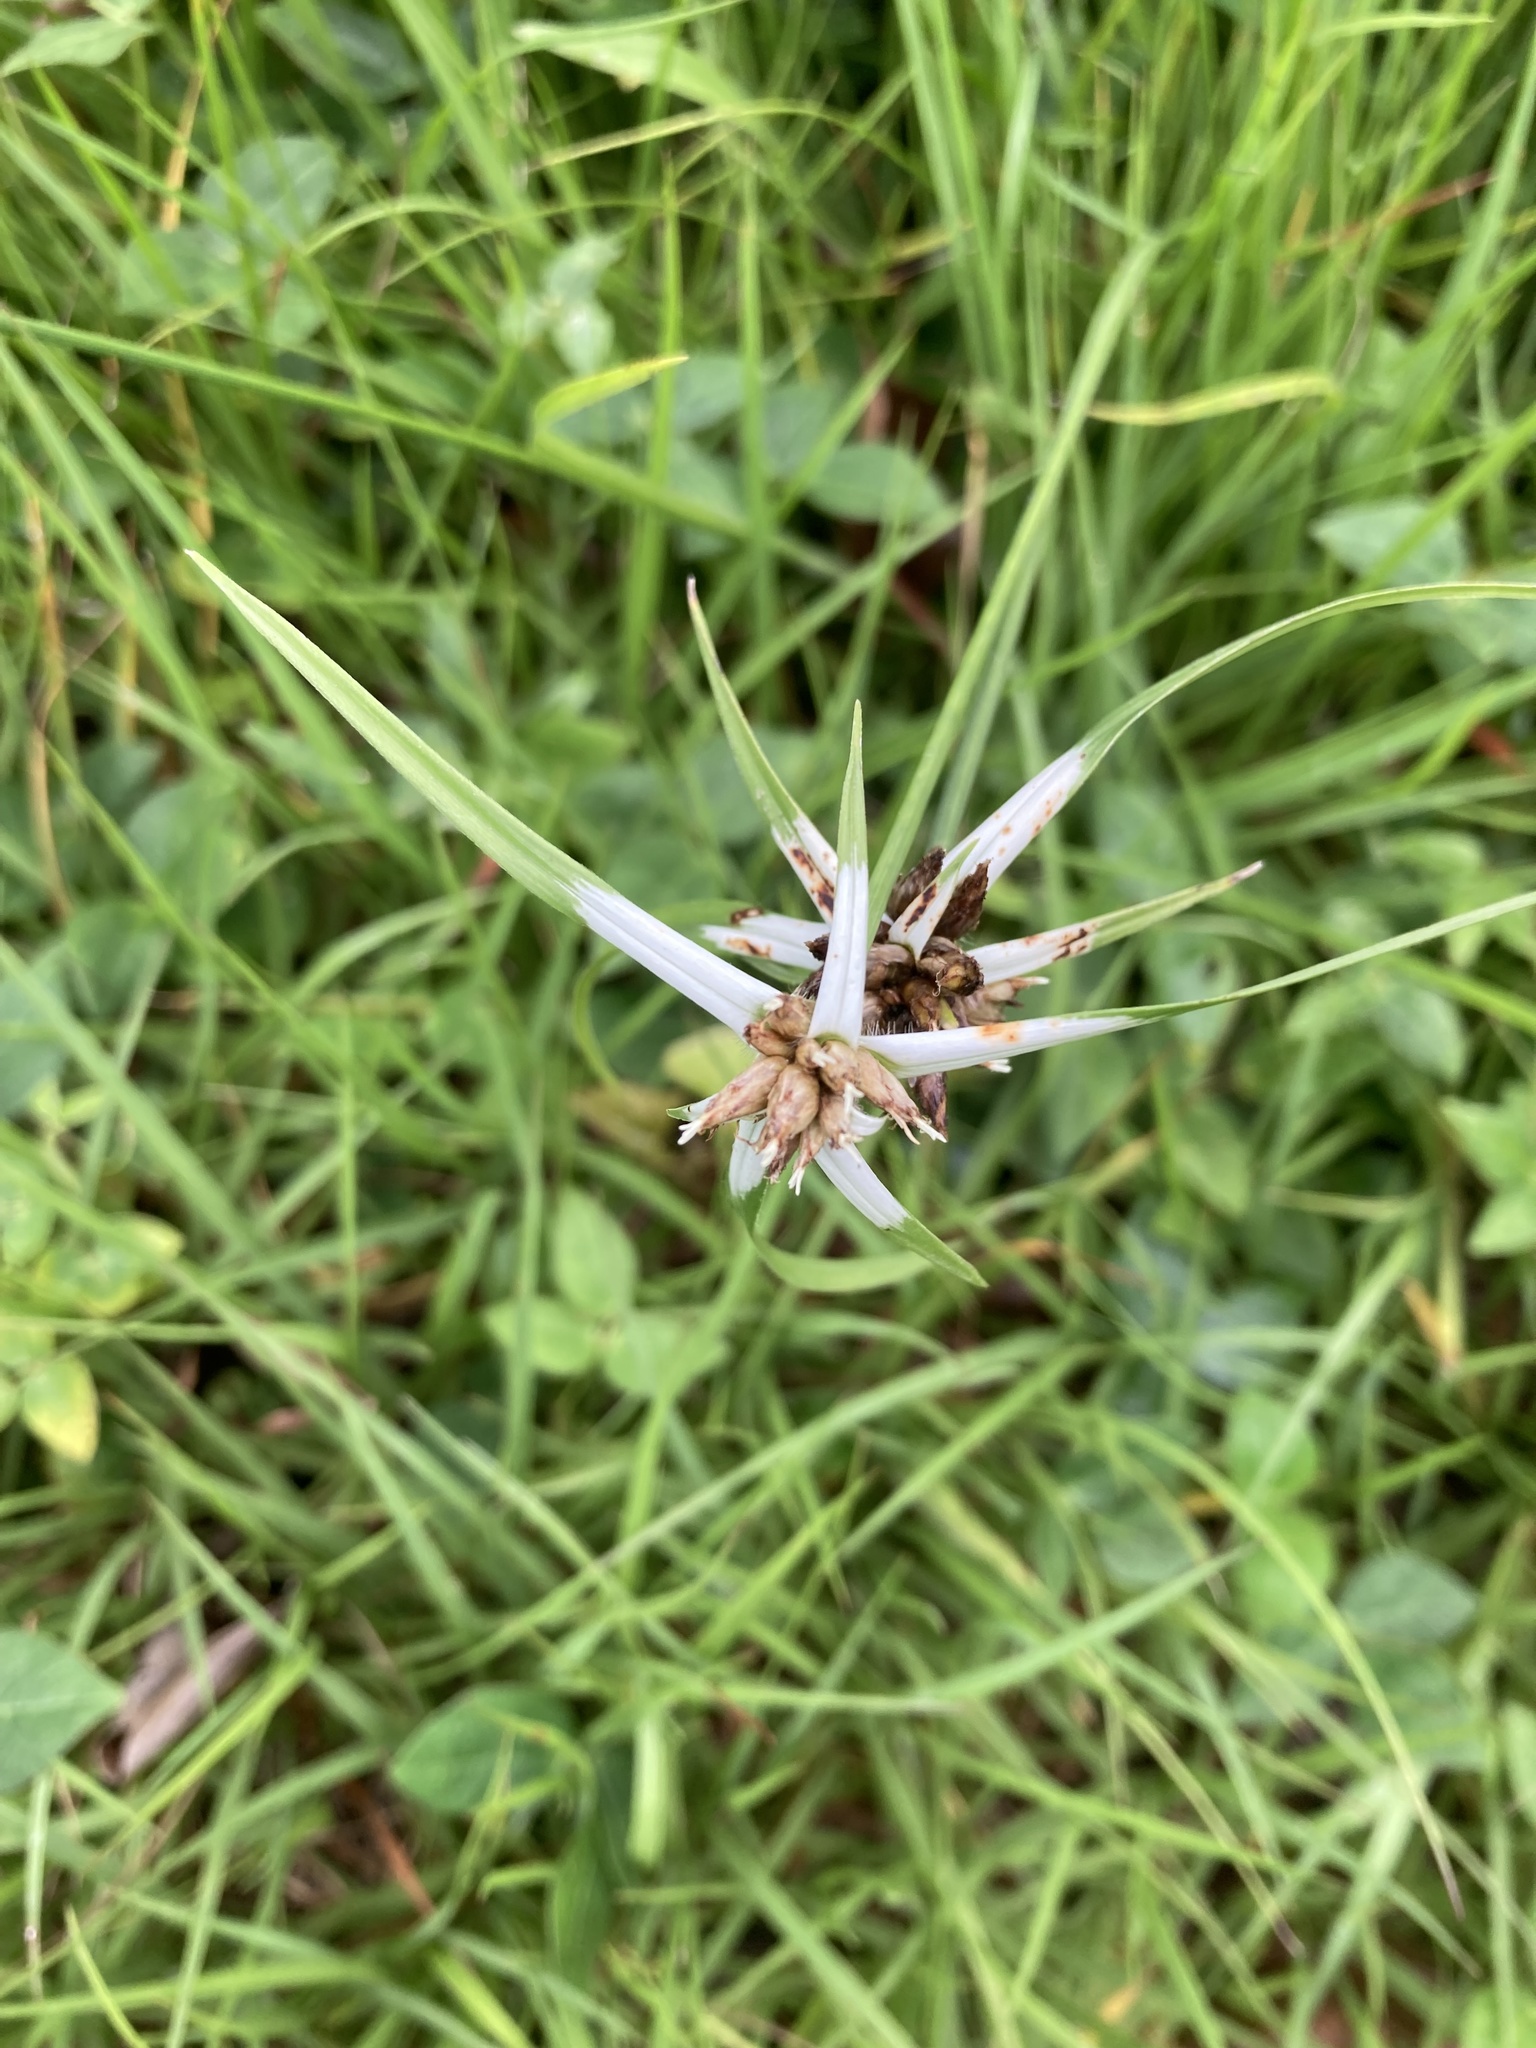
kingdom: Plantae
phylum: Tracheophyta
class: Liliopsida
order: Poales
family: Cyperaceae
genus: Rhynchospora
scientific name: Rhynchospora pura
